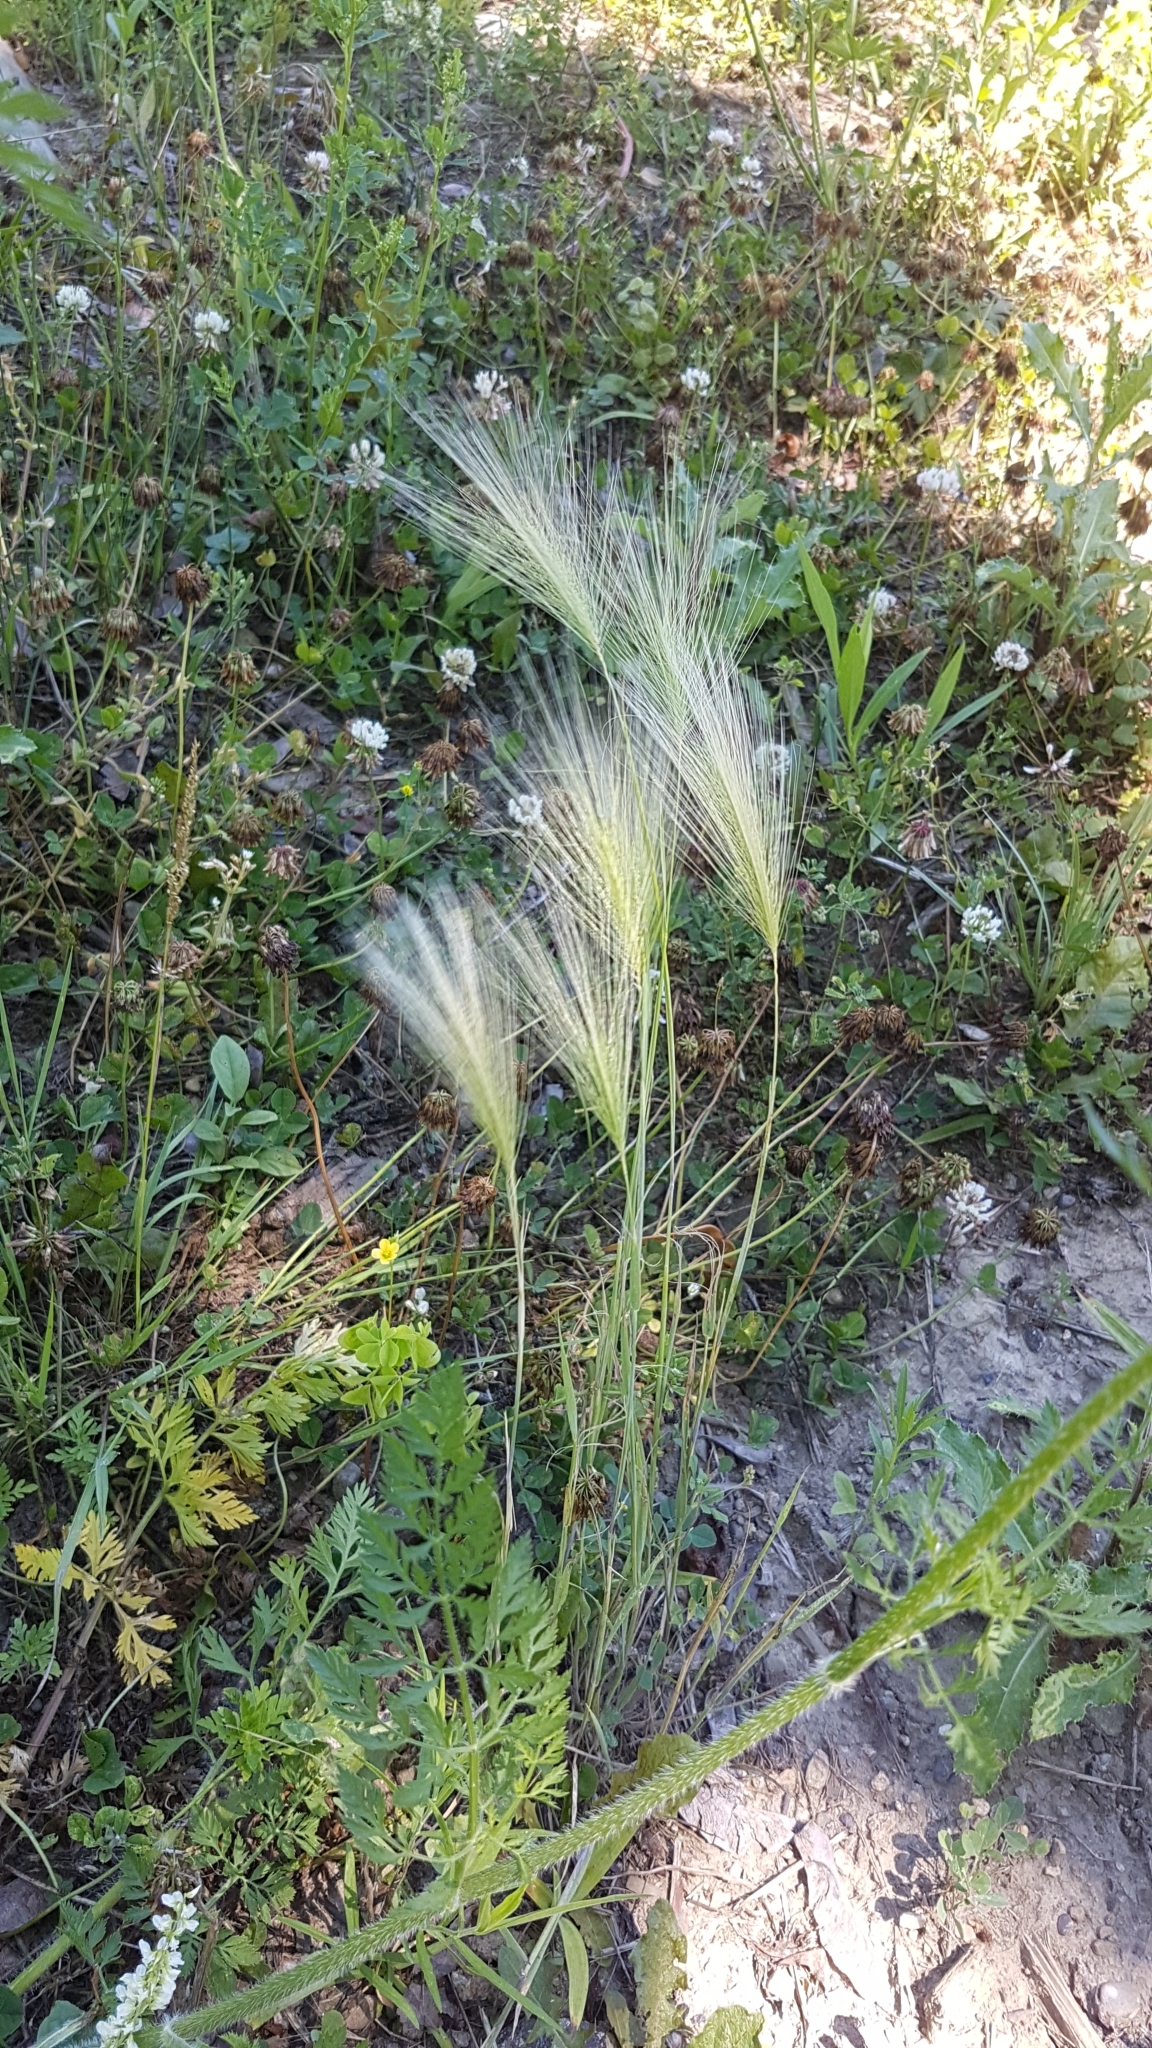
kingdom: Plantae
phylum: Tracheophyta
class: Liliopsida
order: Poales
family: Poaceae
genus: Hordeum
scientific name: Hordeum jubatum
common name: Foxtail barley
